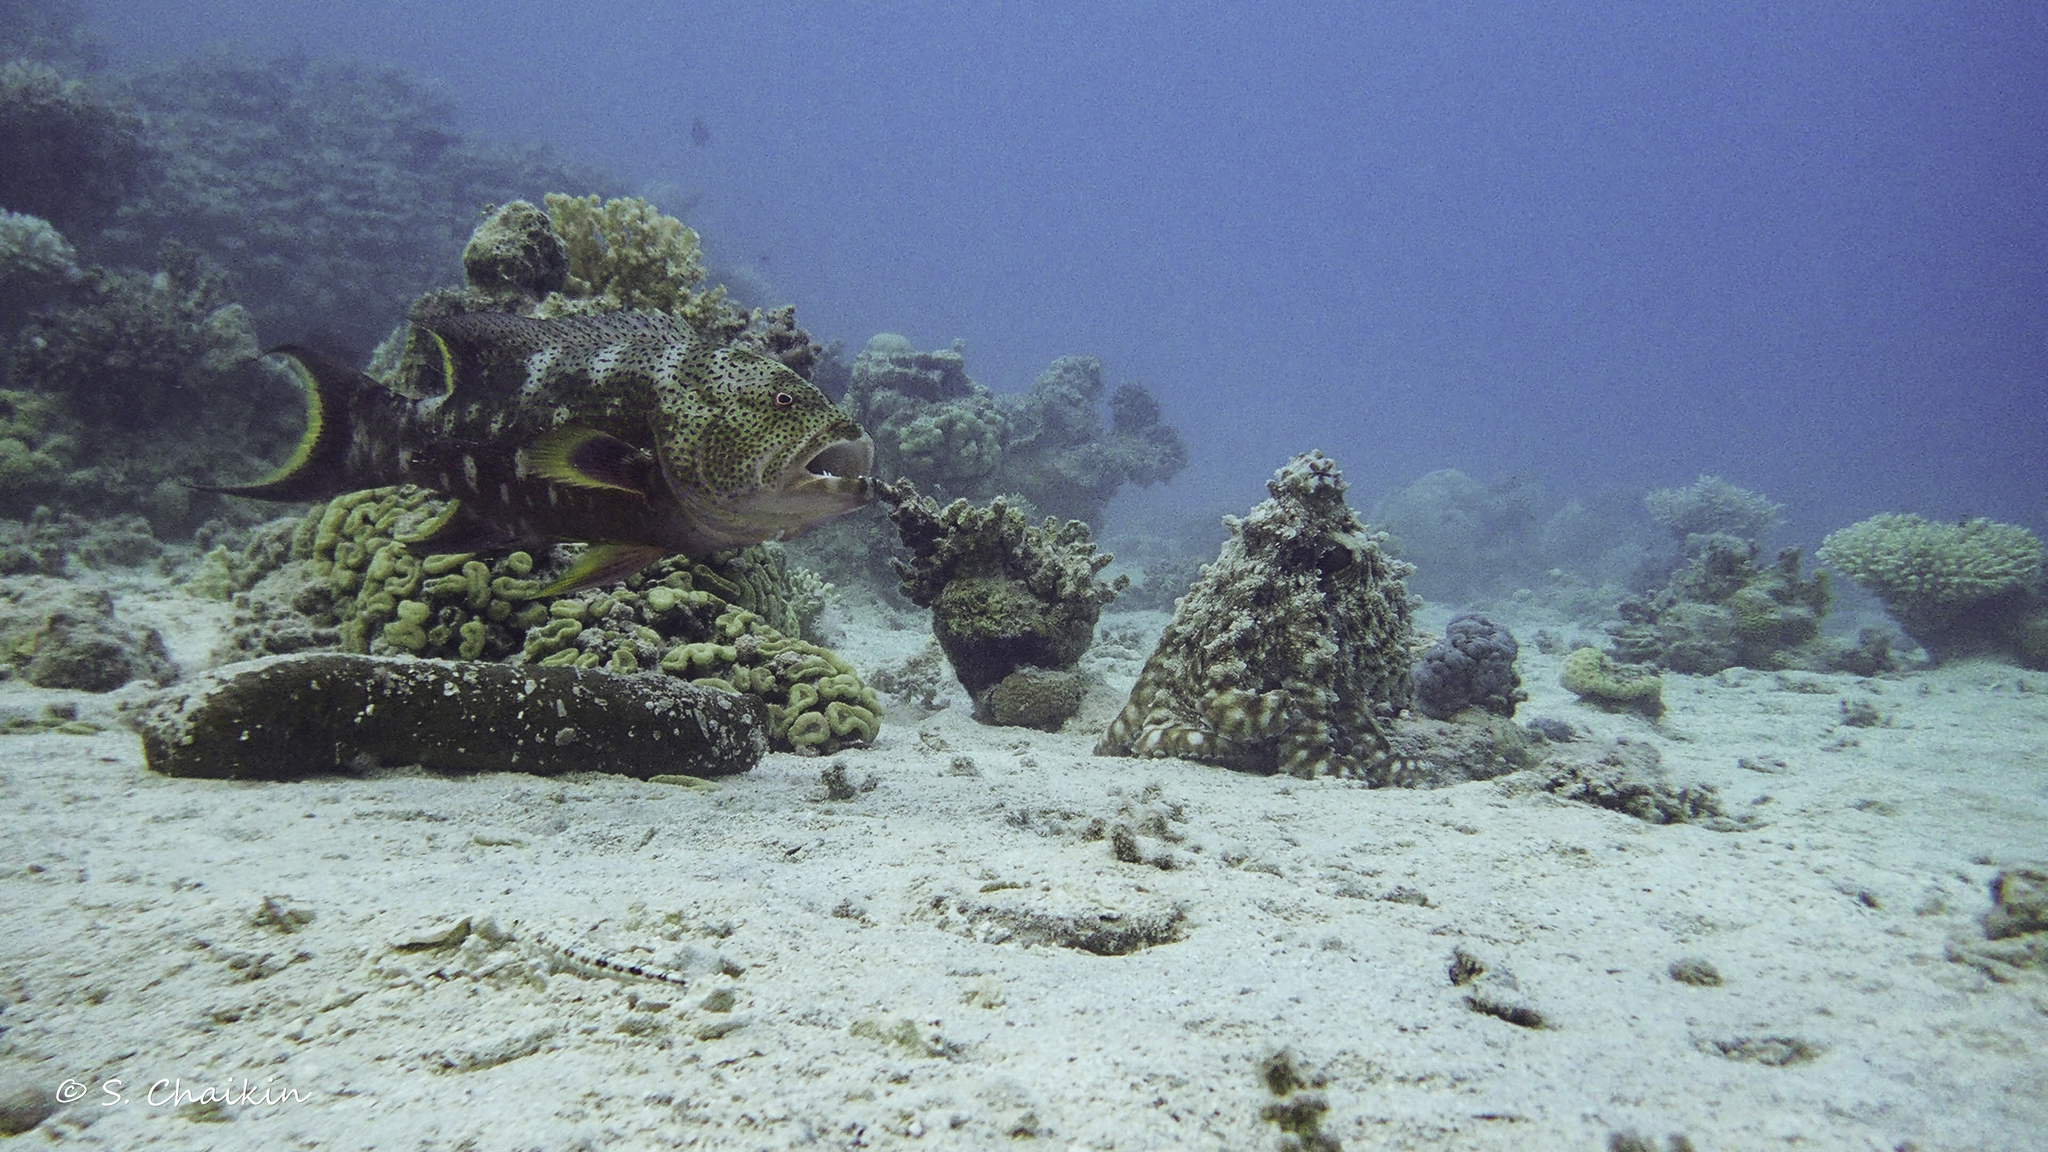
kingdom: Animalia
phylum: Chordata
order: Perciformes
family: Serranidae
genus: Variola
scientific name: Variola louti
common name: Yellow-edged lyretail
